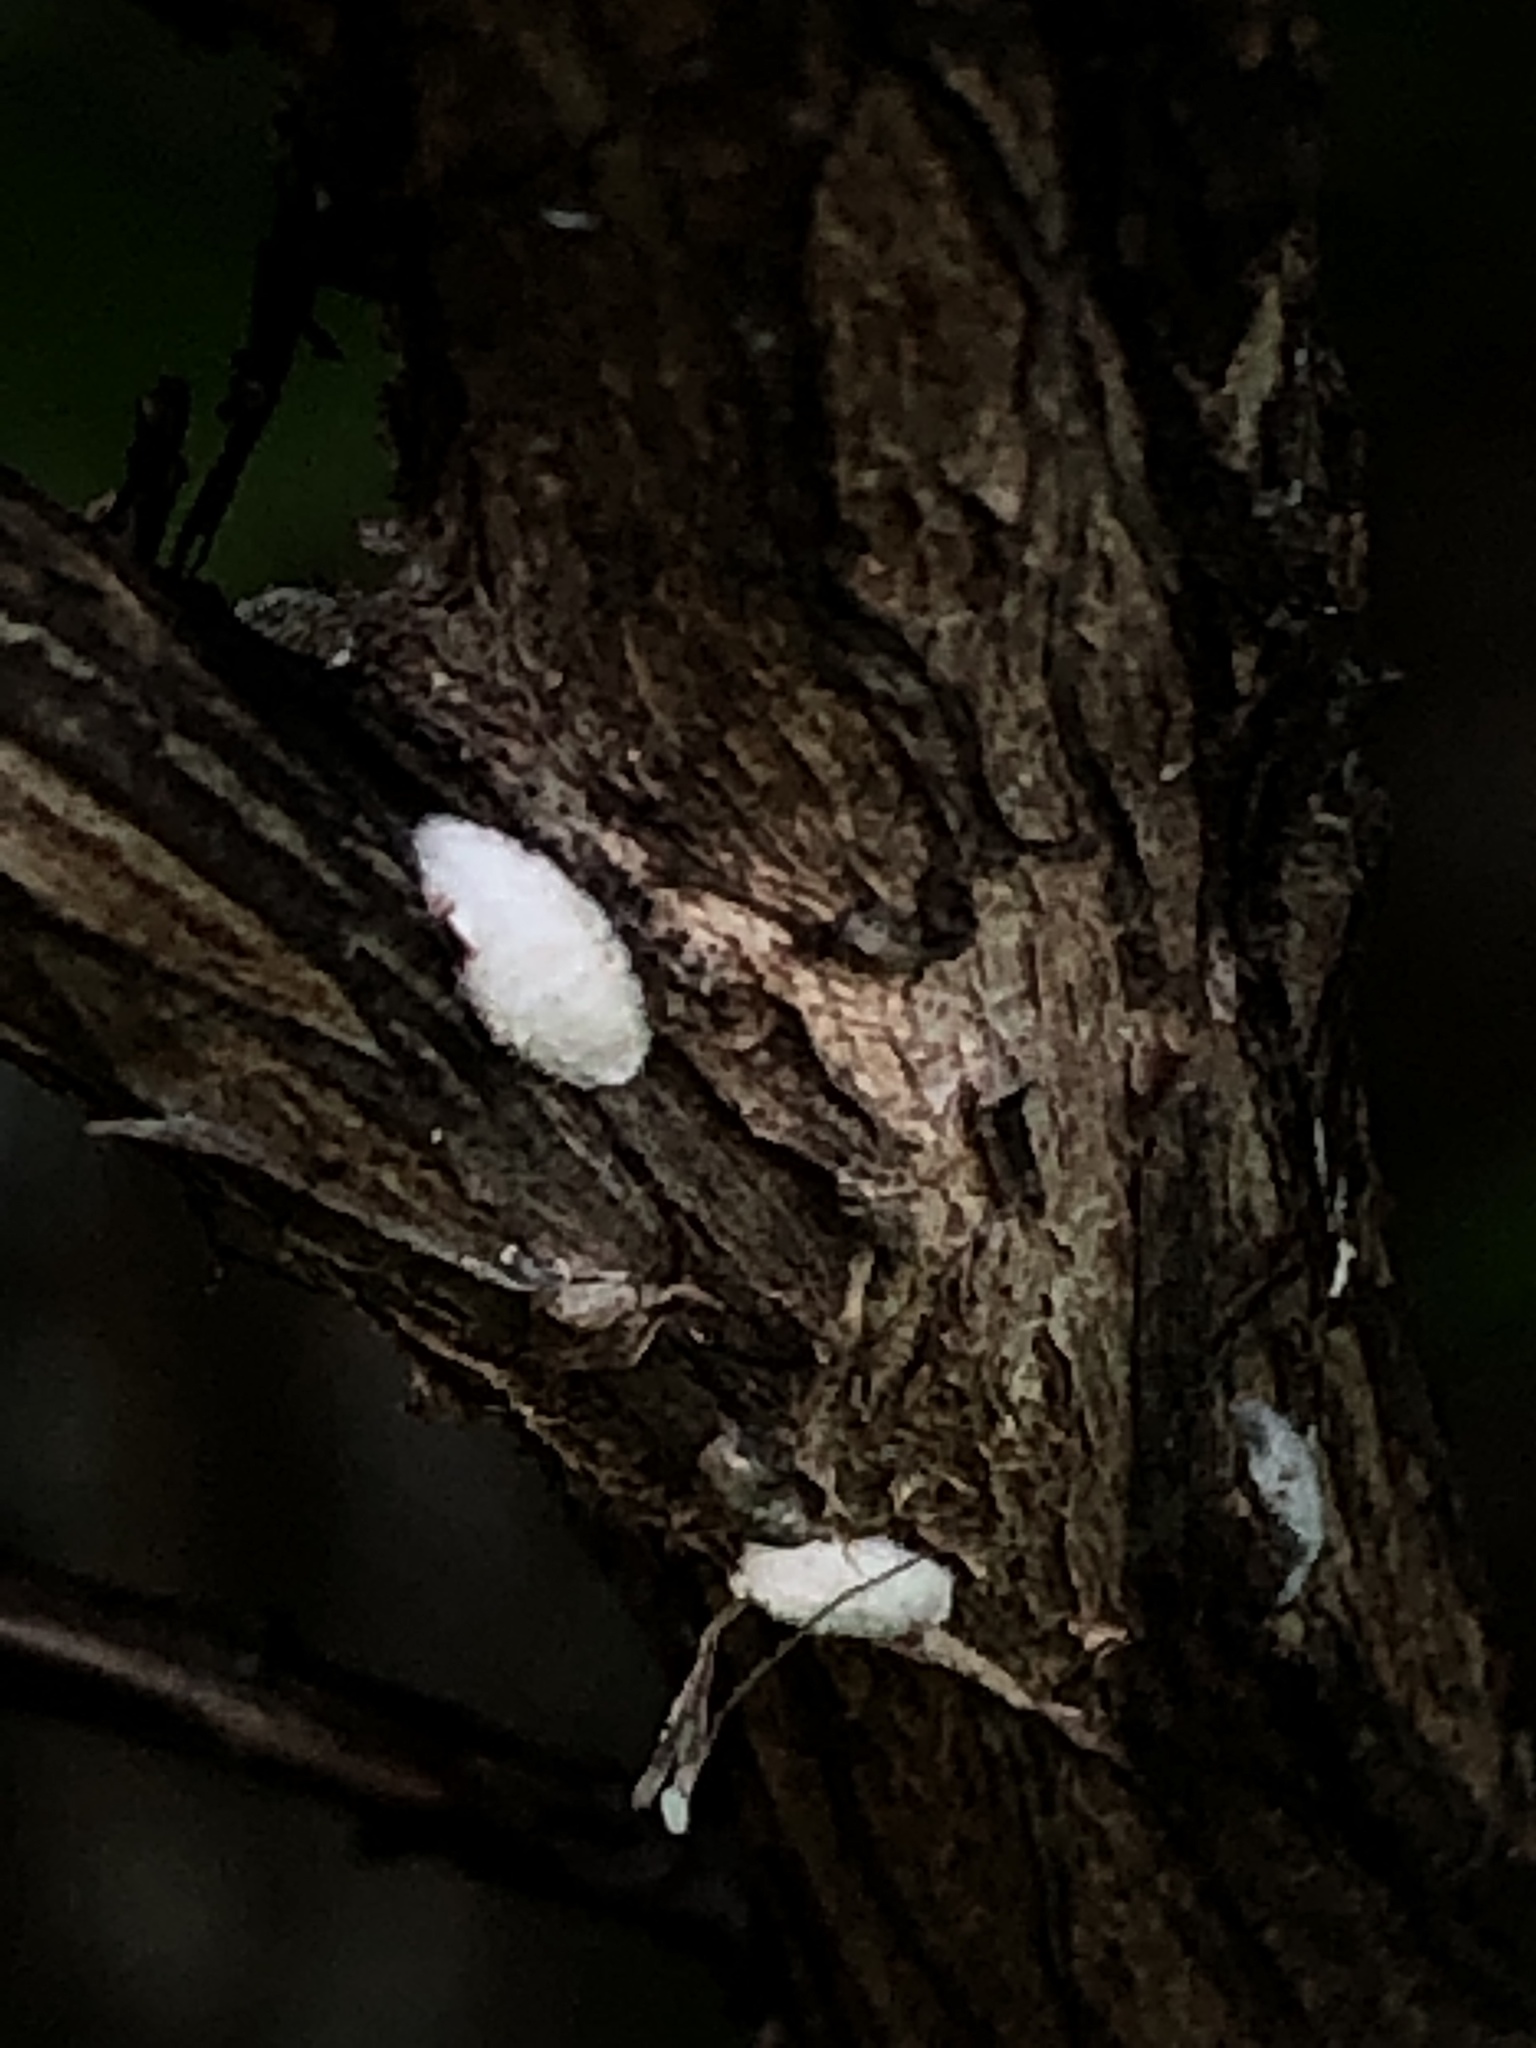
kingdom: Animalia
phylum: Arthropoda
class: Insecta
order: Hemiptera
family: Eriococcidae
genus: Eriococcus
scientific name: Eriococcus lagerstroemiae
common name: Crapemyrtle bark scale
